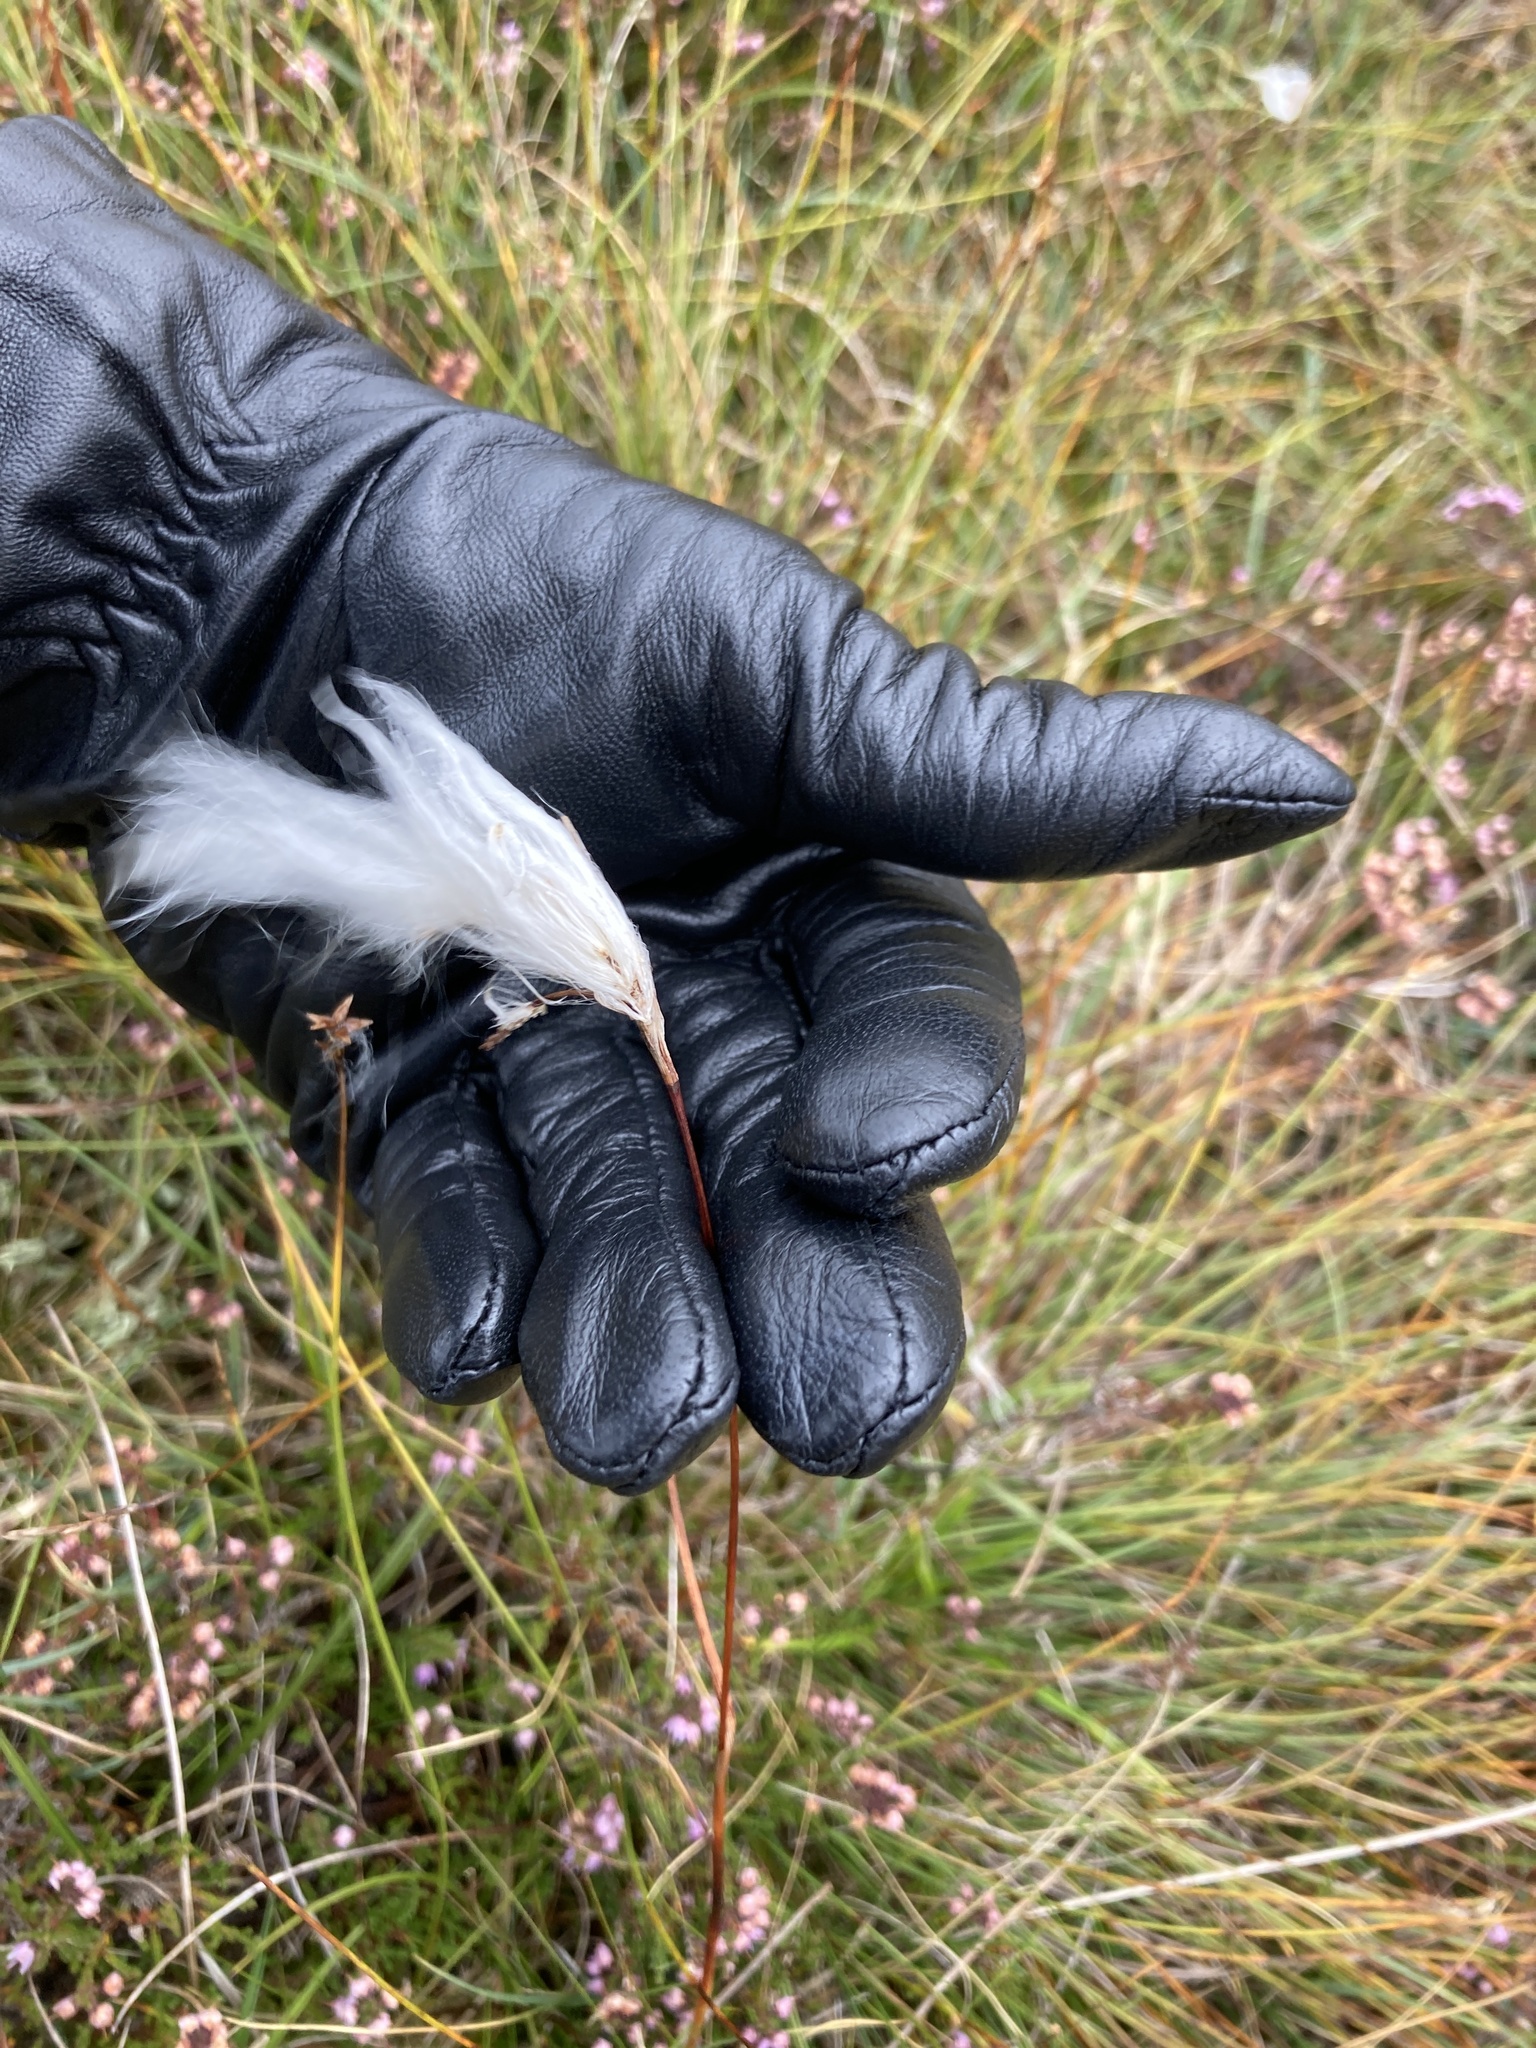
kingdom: Plantae
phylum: Tracheophyta
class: Liliopsida
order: Poales
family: Cyperaceae
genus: Eriophorum
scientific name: Eriophorum angustifolium
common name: Common cottongrass
